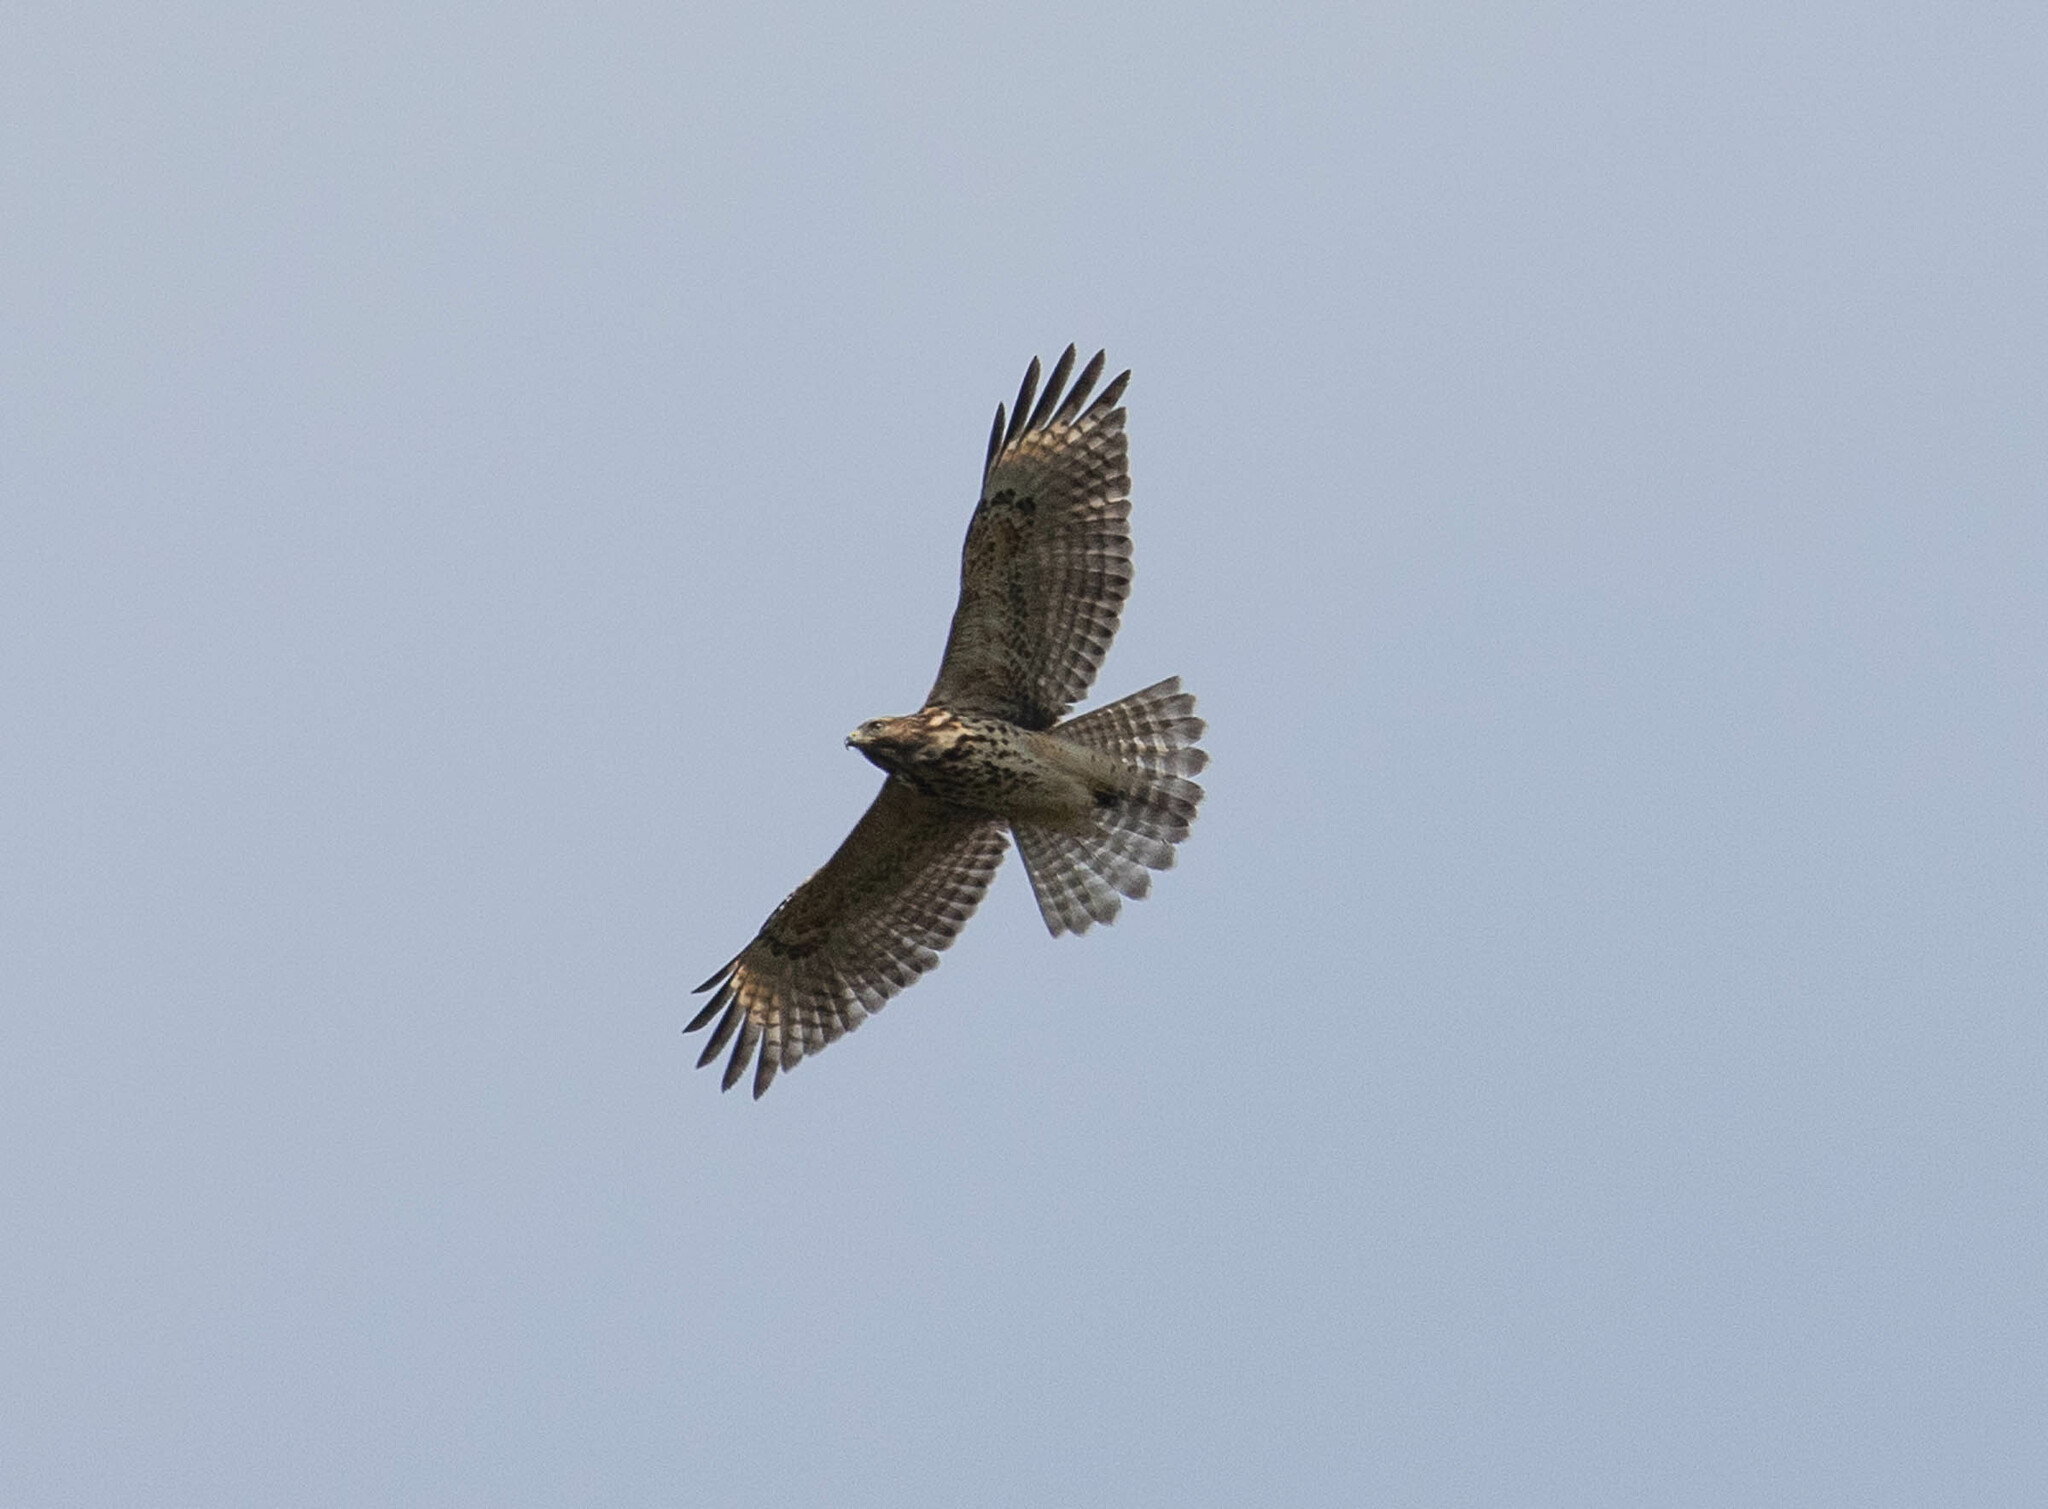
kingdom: Animalia
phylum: Chordata
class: Aves
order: Accipitriformes
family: Accipitridae
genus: Buteo
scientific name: Buteo lineatus
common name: Red-shouldered hawk
